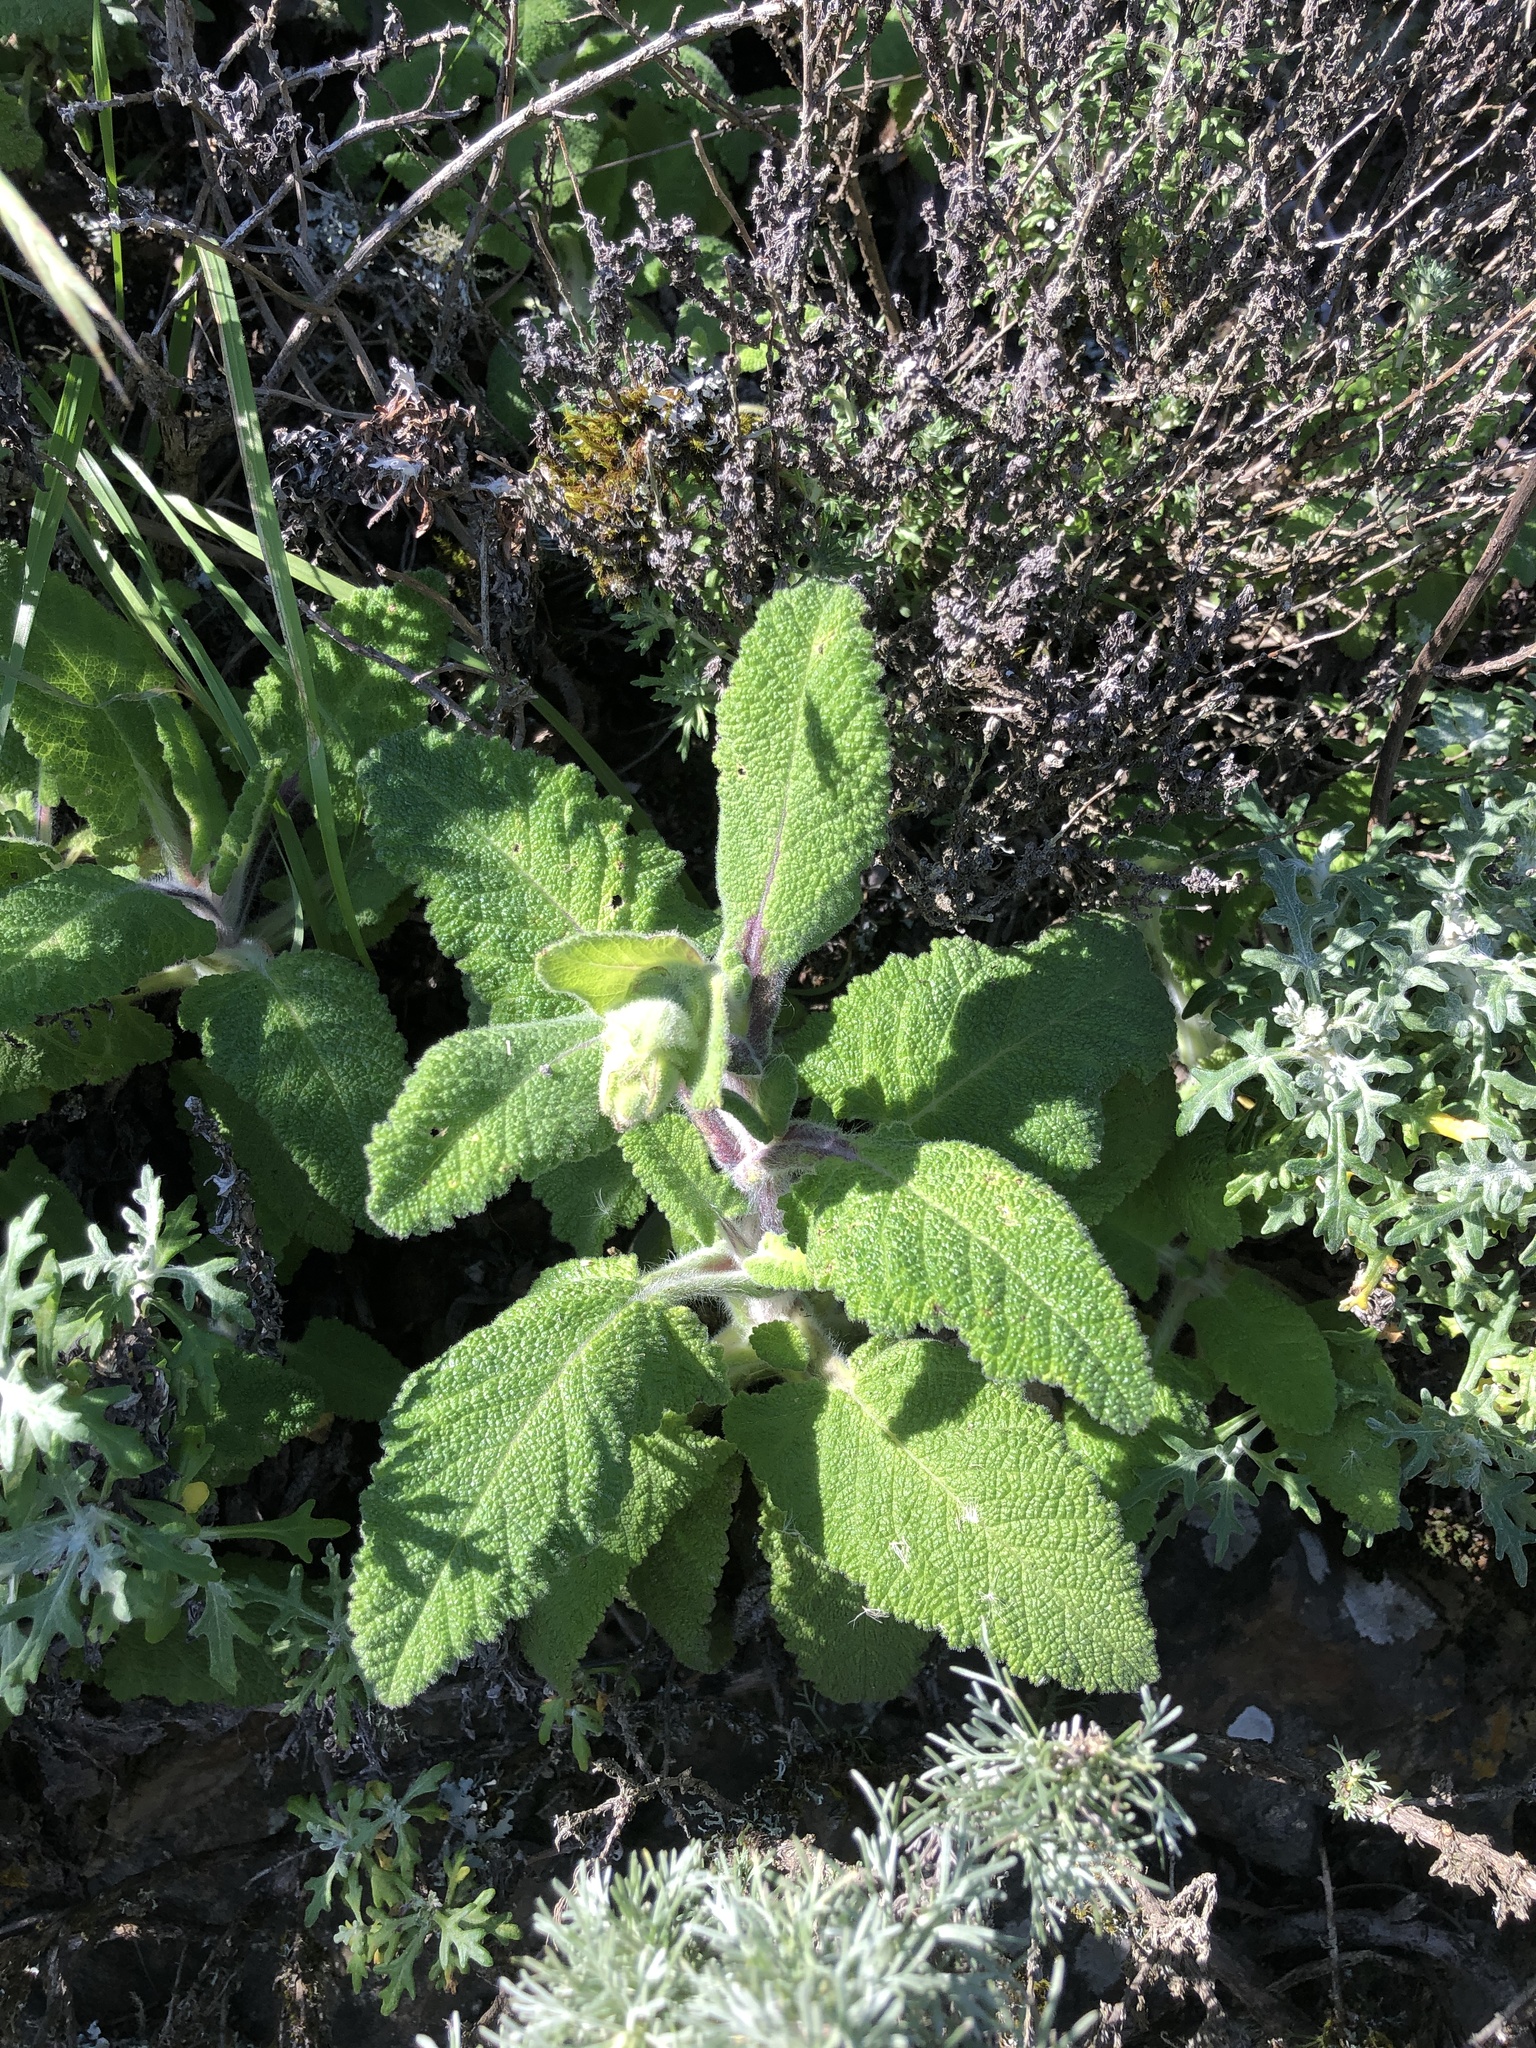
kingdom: Plantae
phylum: Tracheophyta
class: Magnoliopsida
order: Lamiales
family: Lamiaceae
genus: Salvia
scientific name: Salvia spathacea
